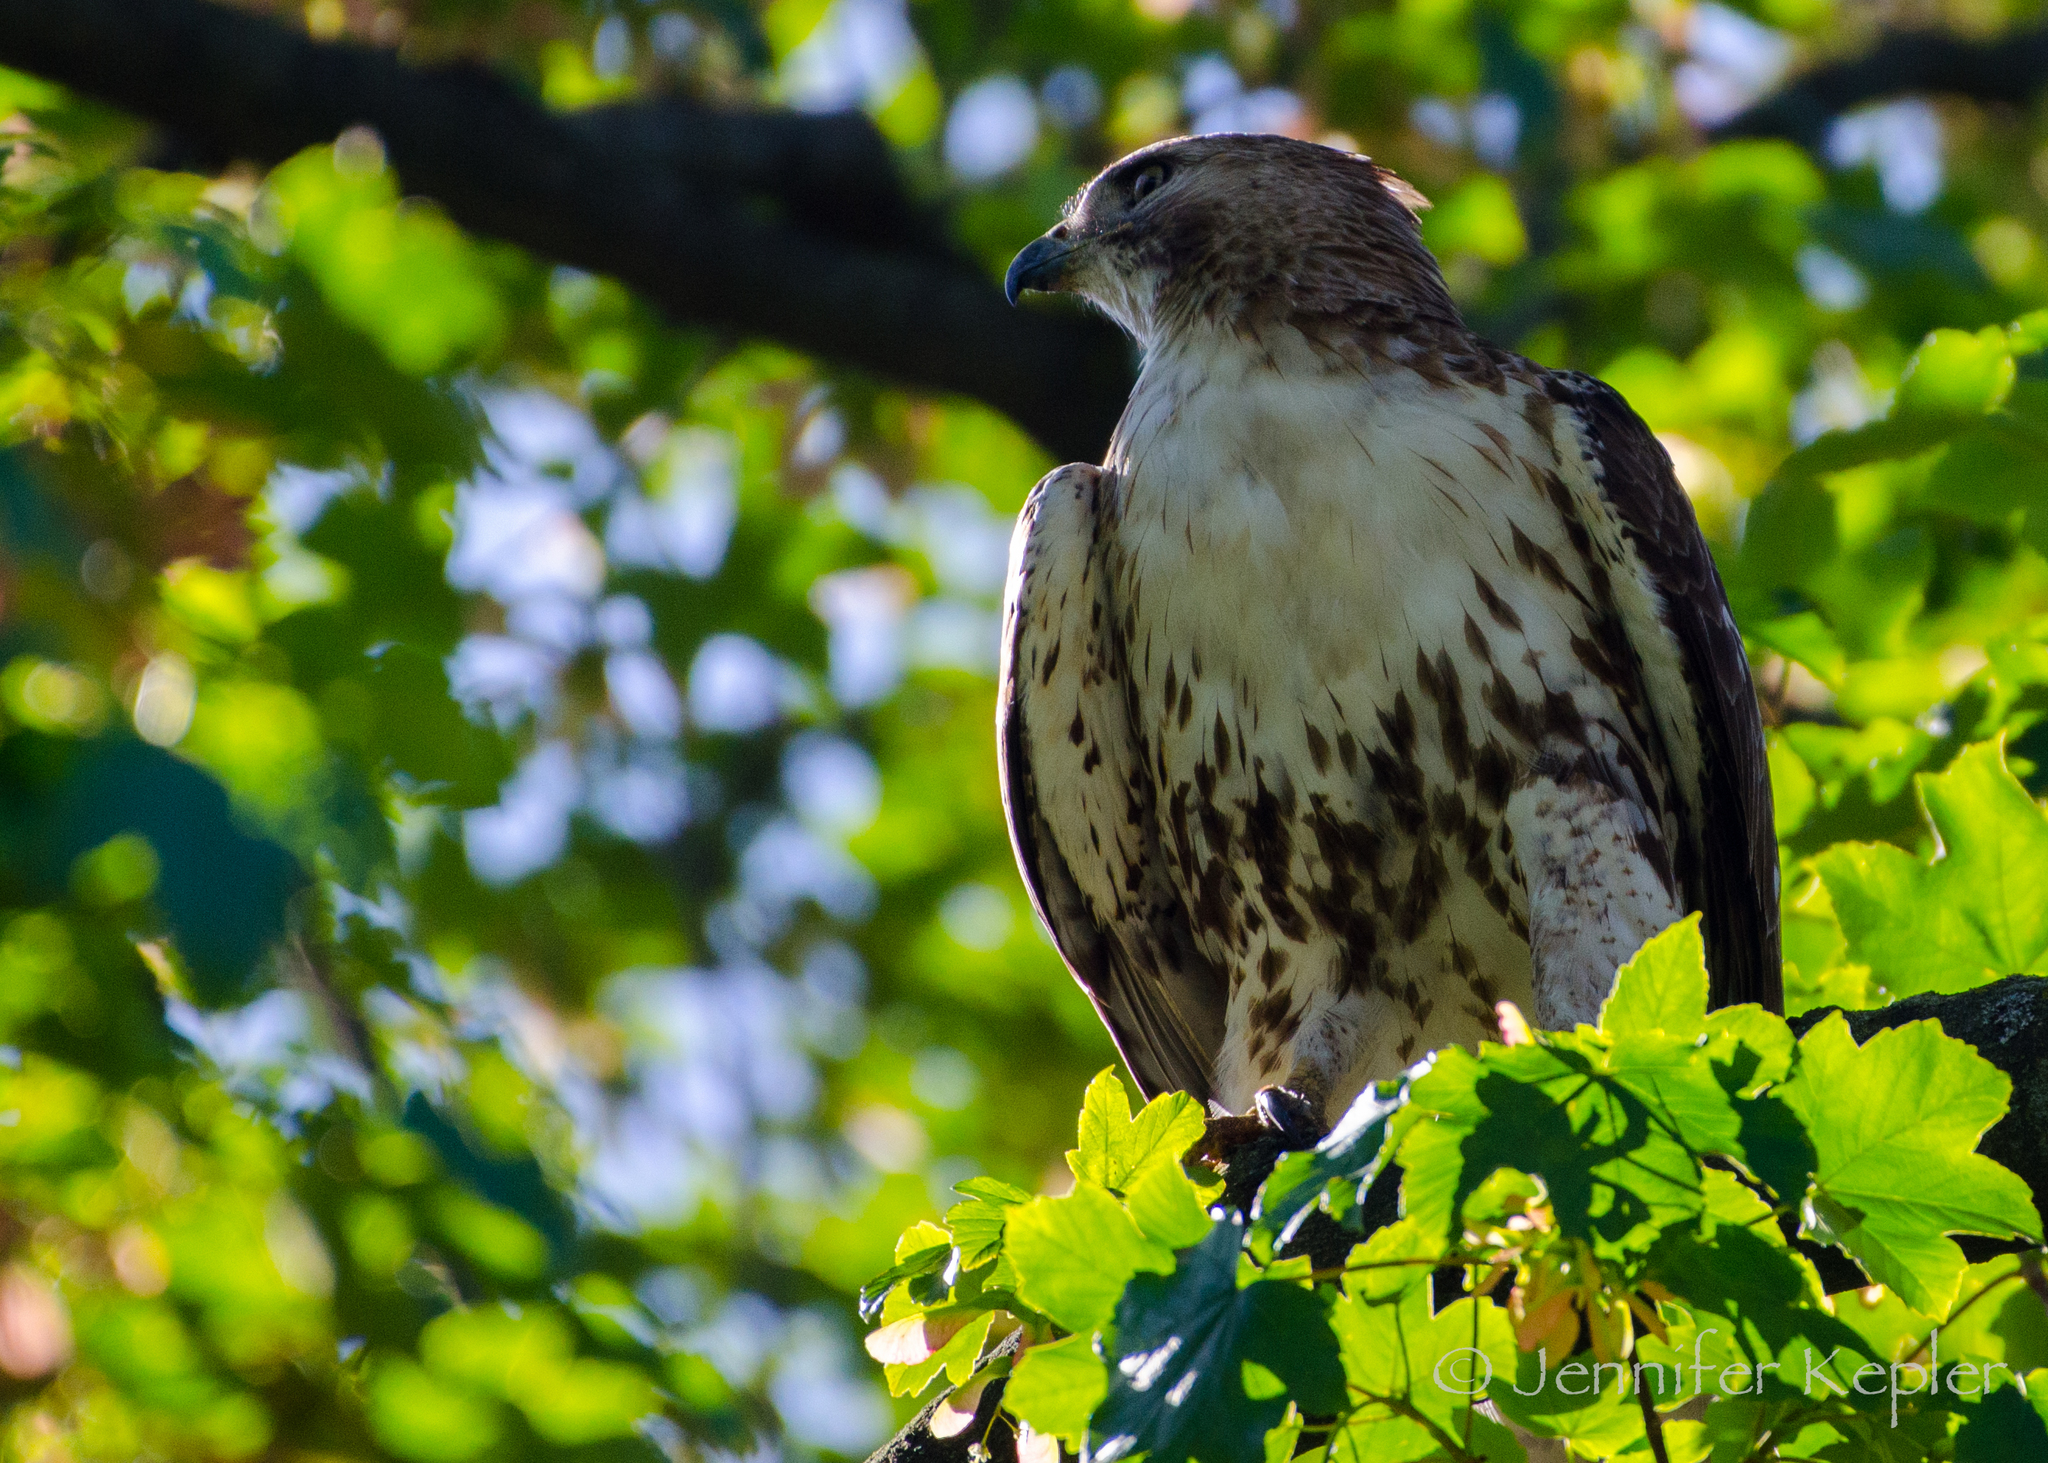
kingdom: Animalia
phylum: Chordata
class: Aves
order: Accipitriformes
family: Accipitridae
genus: Buteo
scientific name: Buteo jamaicensis
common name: Red-tailed hawk
